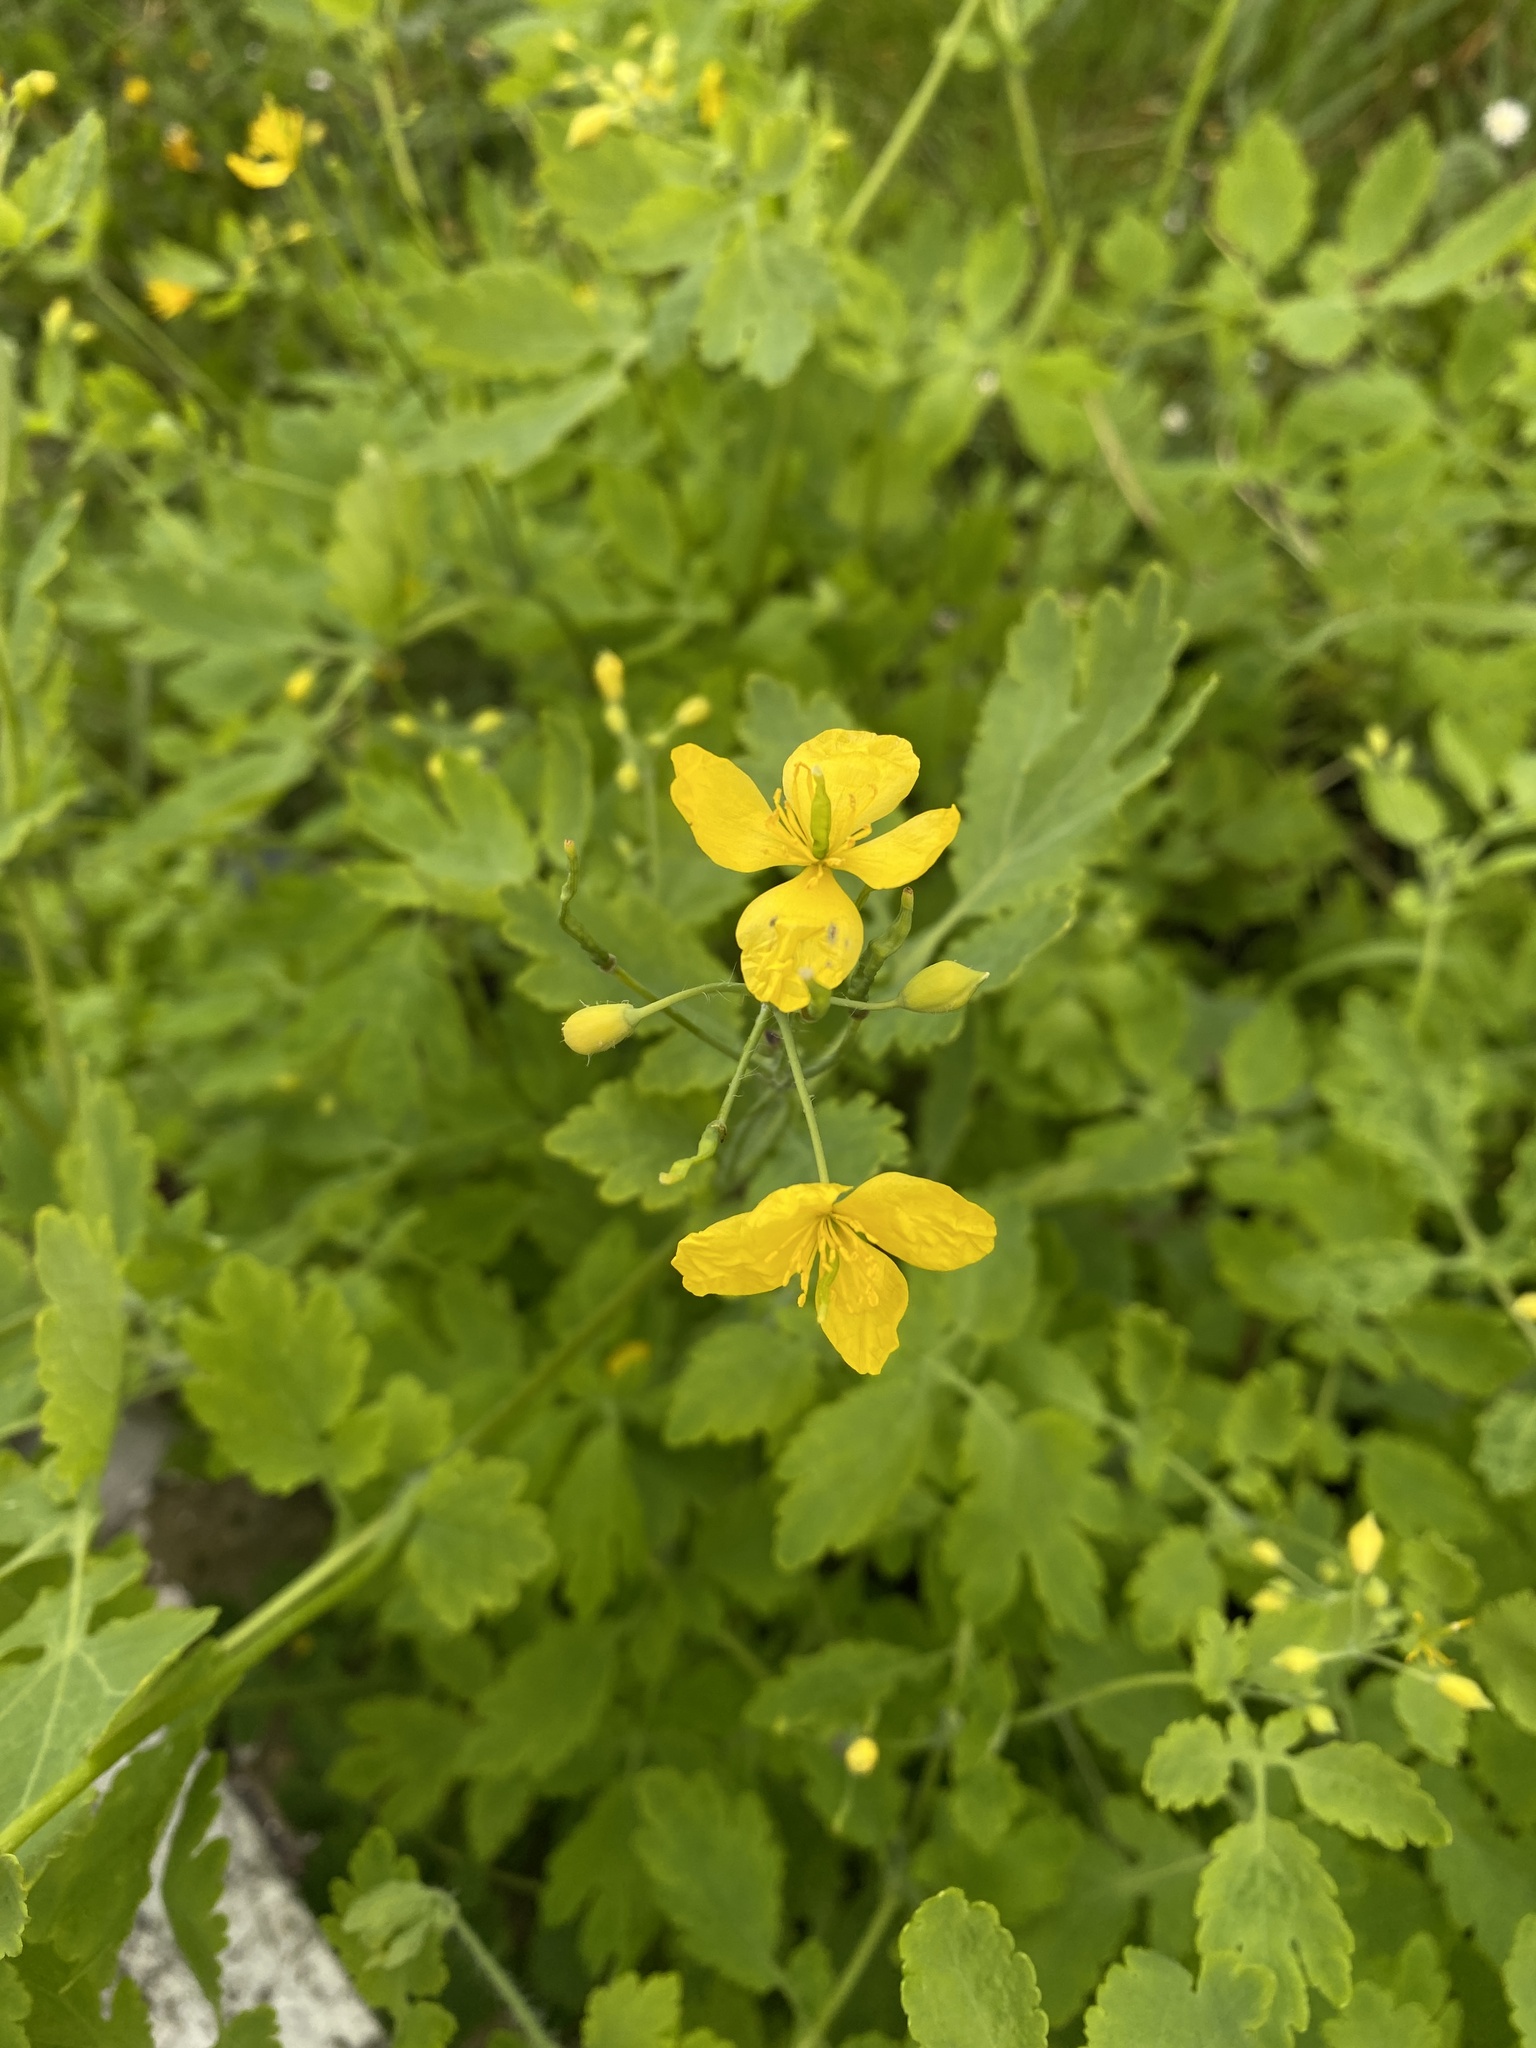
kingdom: Plantae
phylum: Tracheophyta
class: Magnoliopsida
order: Ranunculales
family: Papaveraceae
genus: Chelidonium
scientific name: Chelidonium majus
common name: Greater celandine
